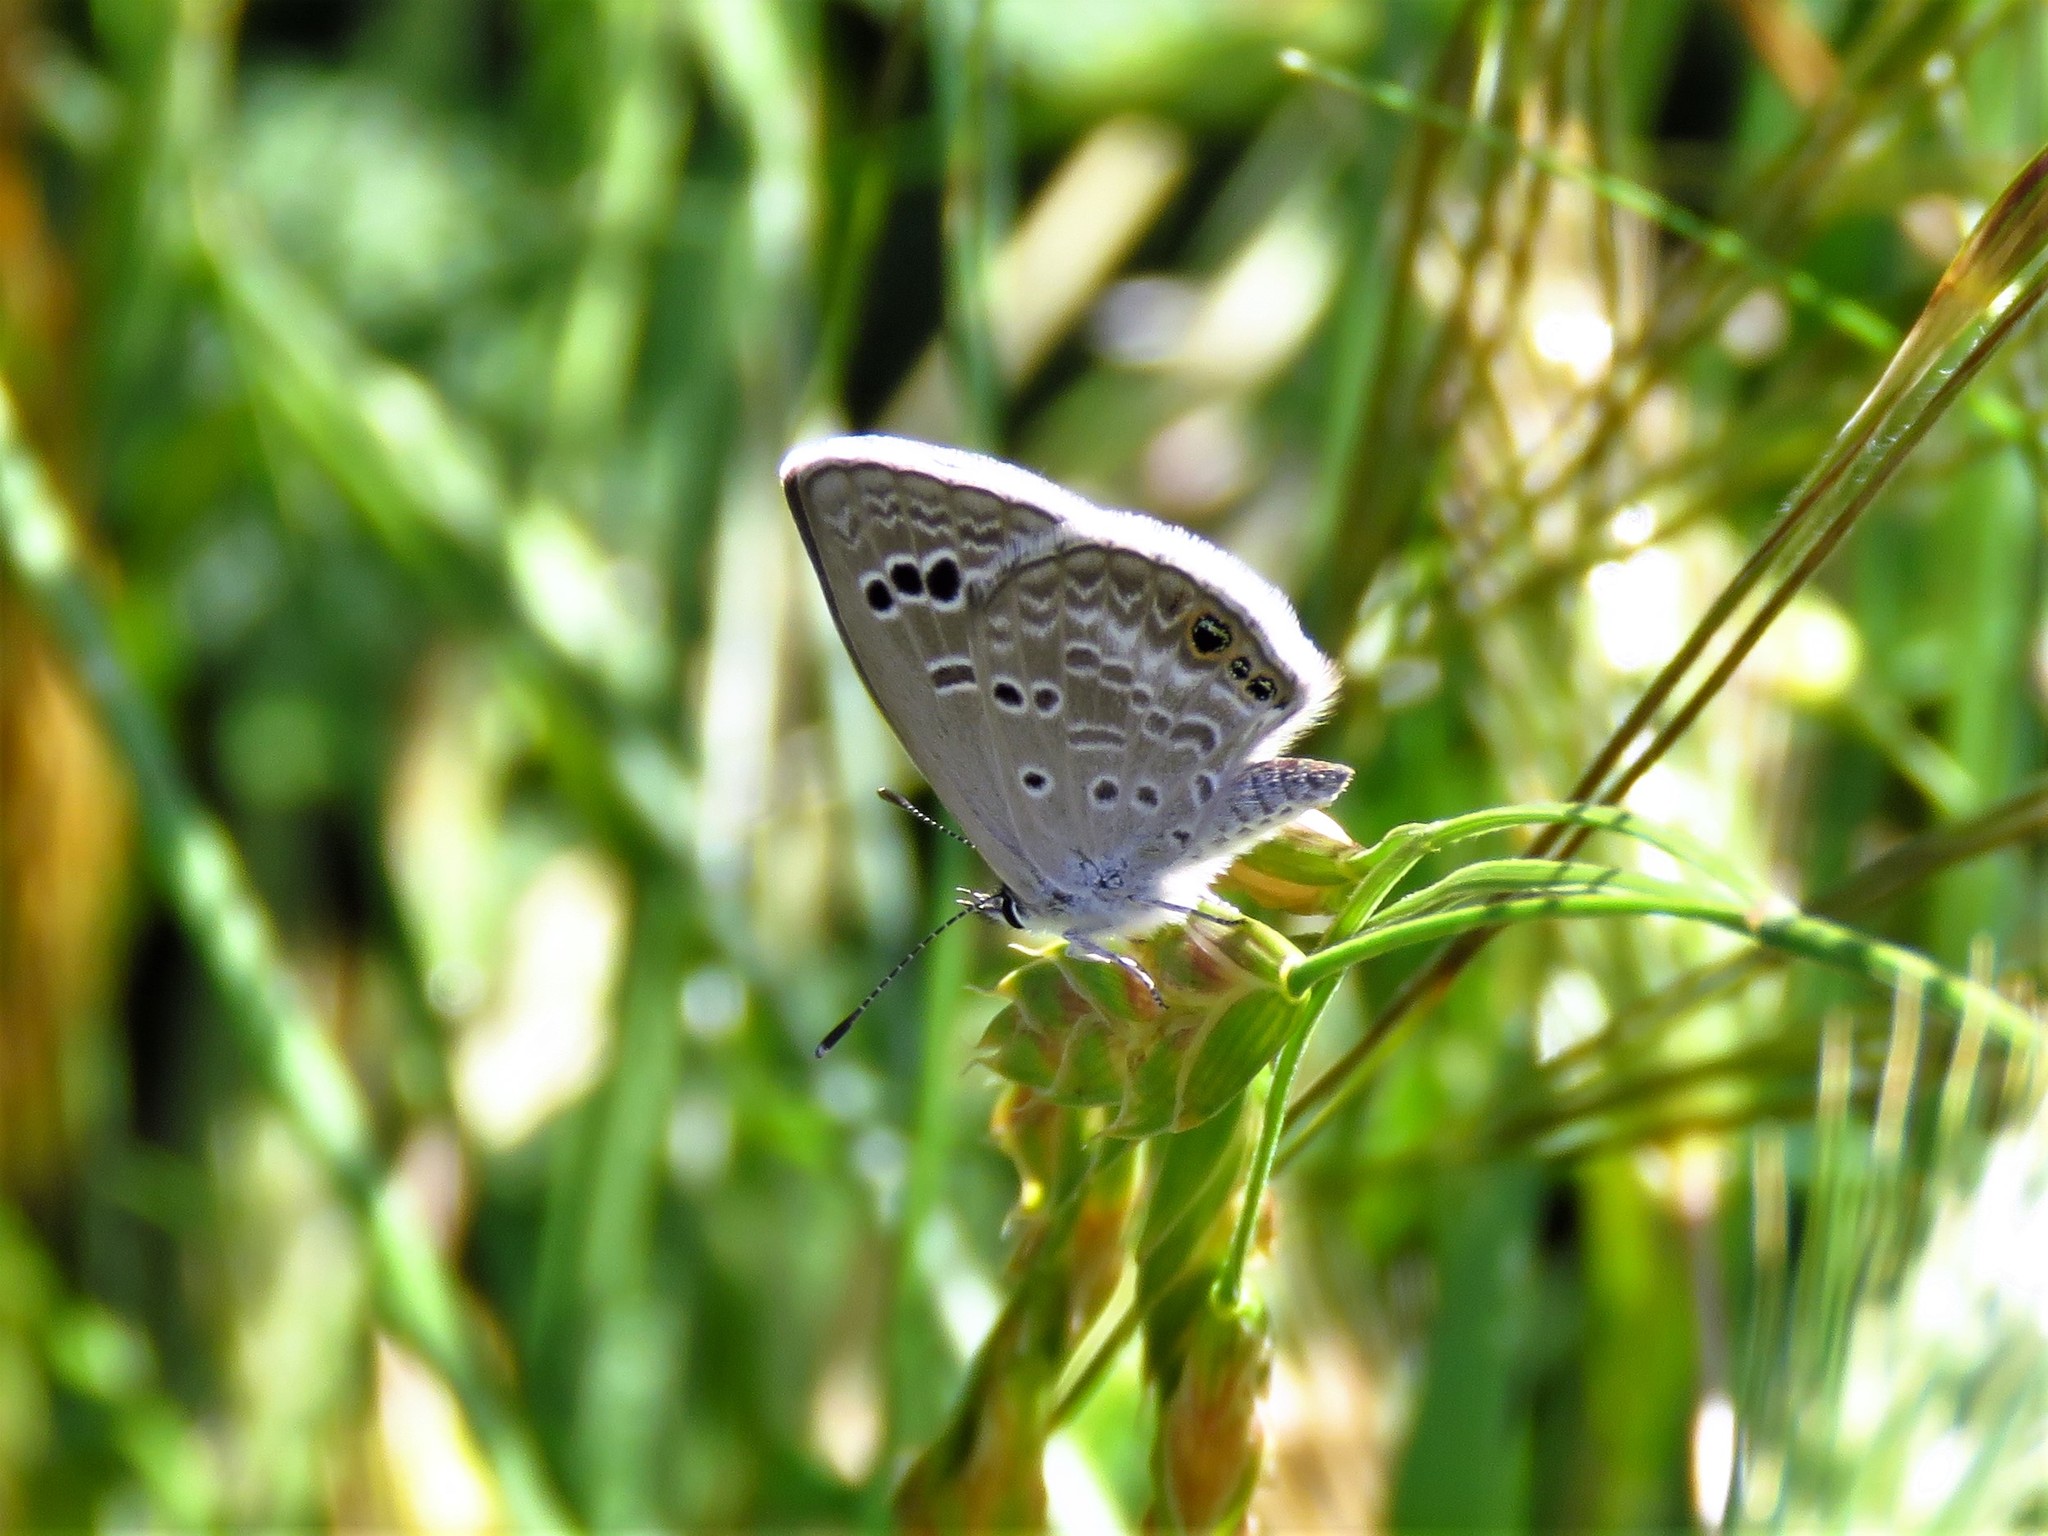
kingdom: Animalia
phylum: Arthropoda
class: Insecta
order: Lepidoptera
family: Lycaenidae
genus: Echinargus
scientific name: Echinargus isola
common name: Reakirt's blue
